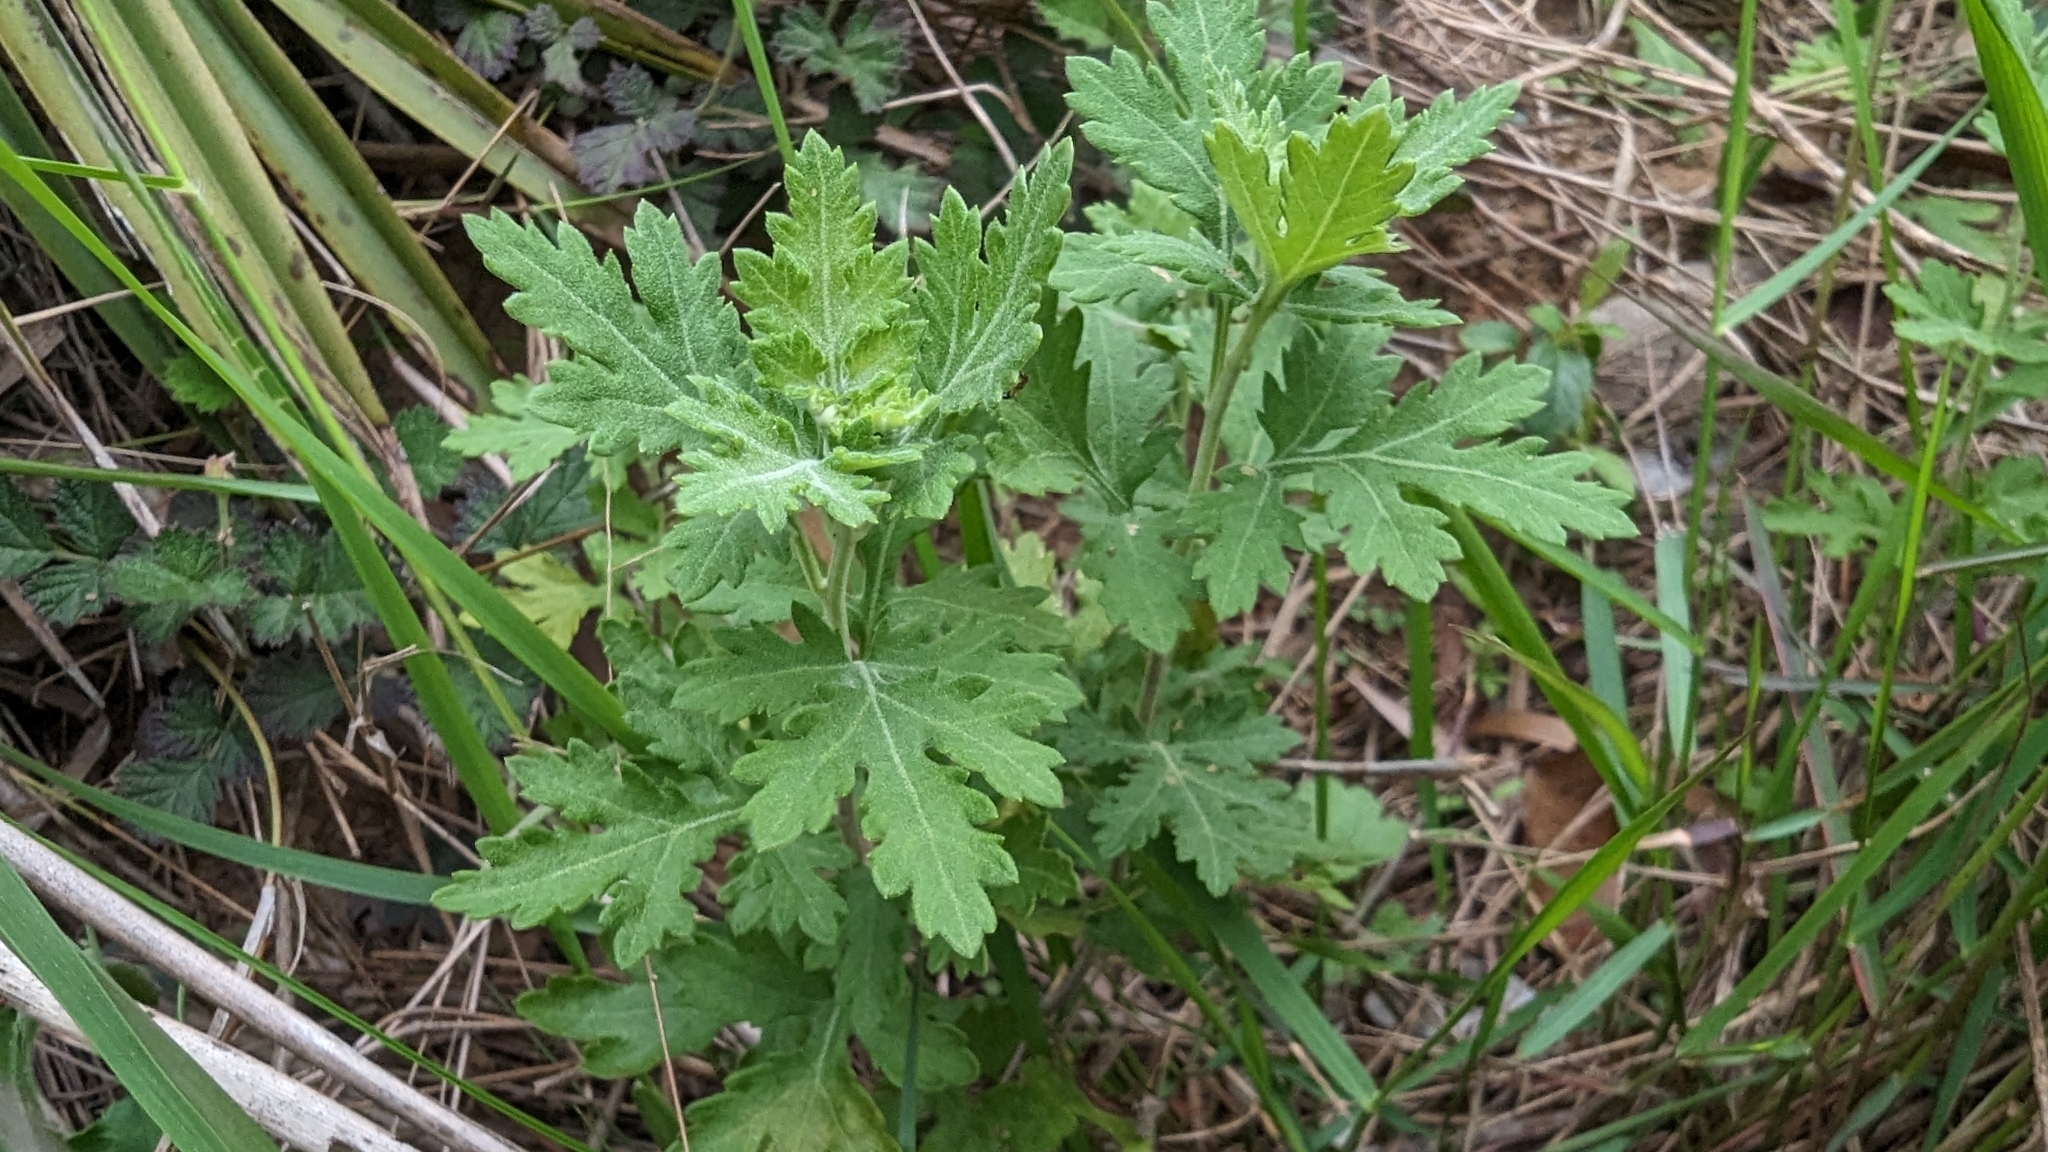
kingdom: Plantae
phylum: Tracheophyta
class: Magnoliopsida
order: Asterales
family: Asteraceae
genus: Chrysanthemum
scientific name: Chrysanthemum lavandulifolium
